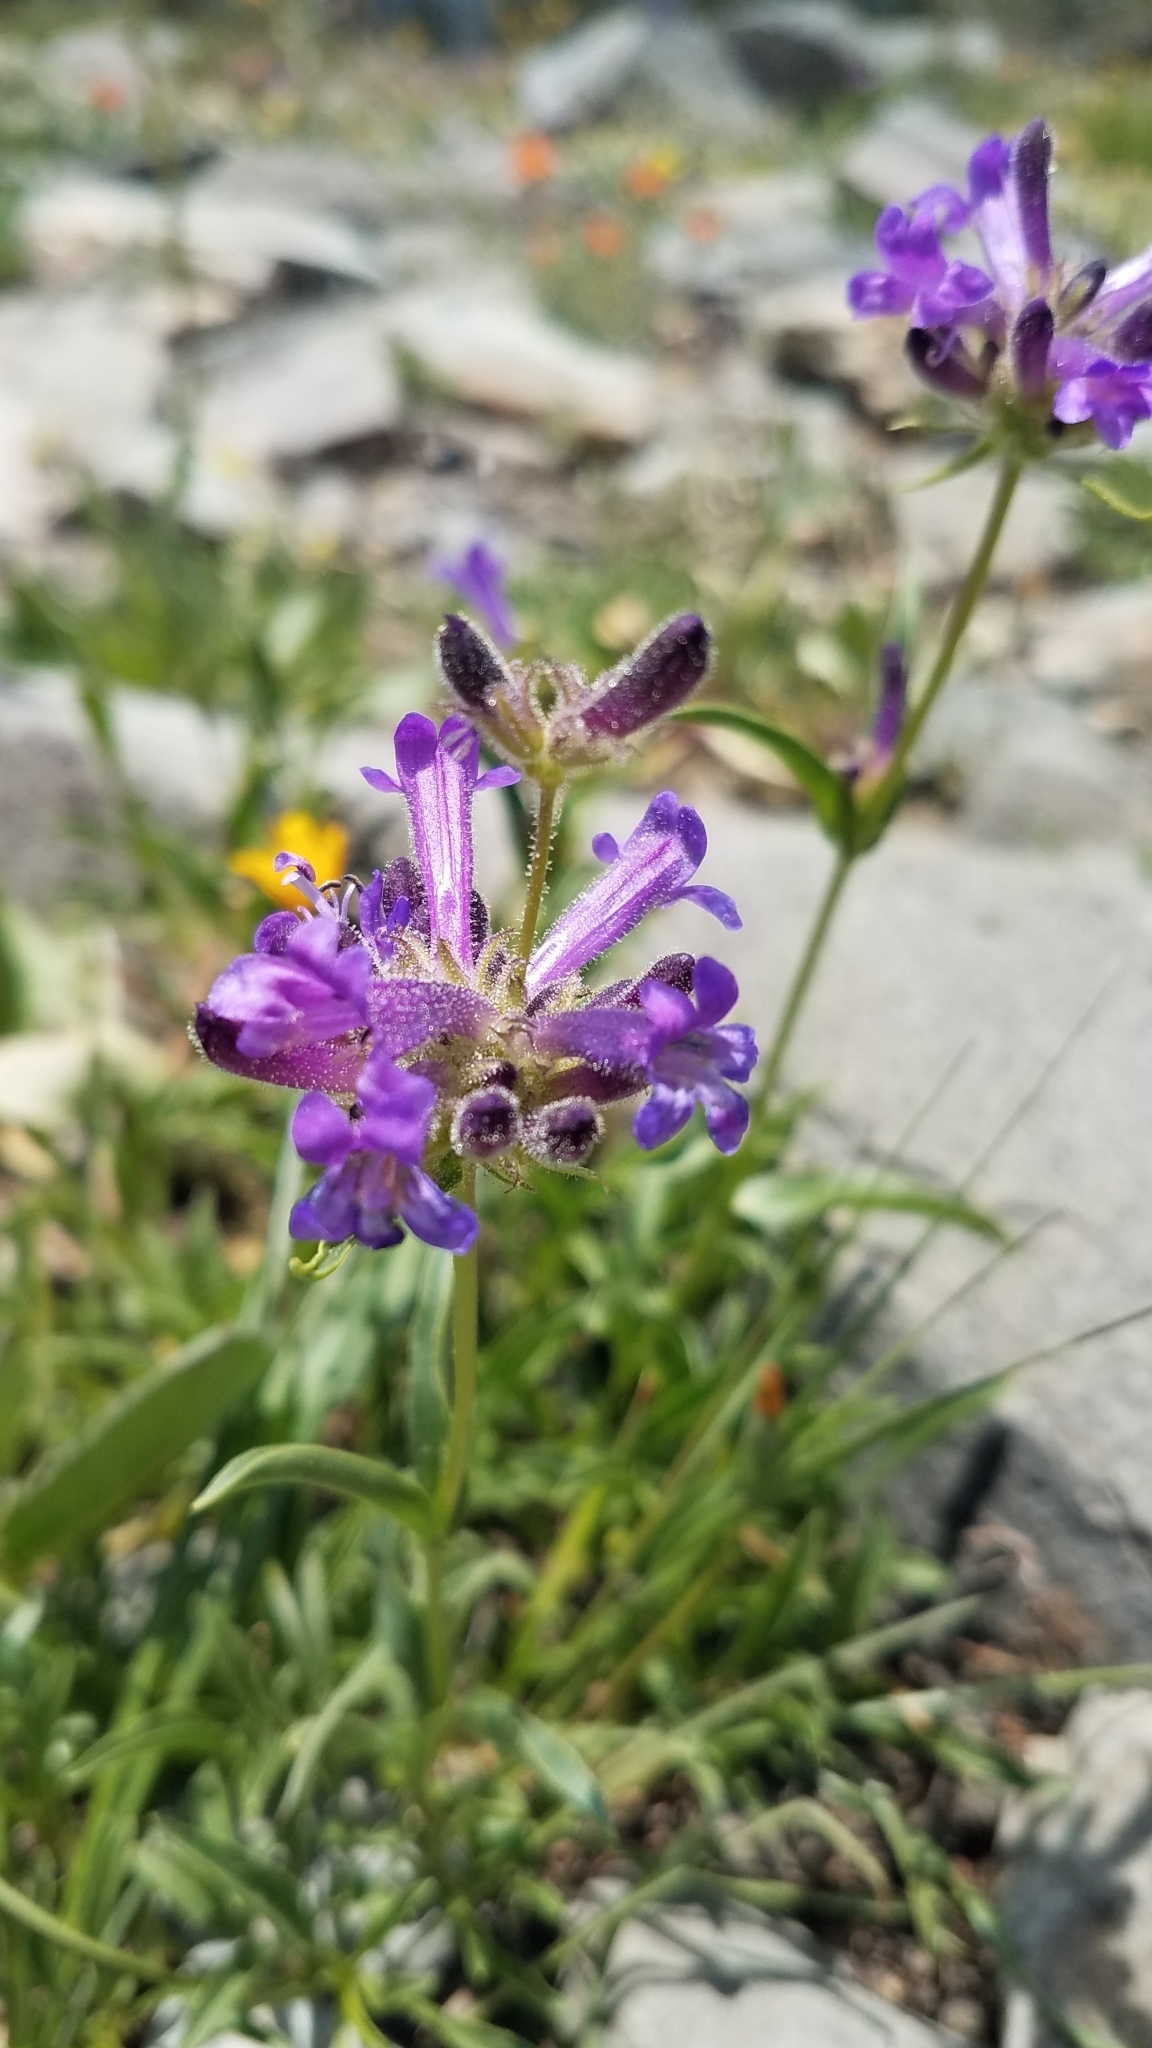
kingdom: Plantae
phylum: Tracheophyta
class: Magnoliopsida
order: Lamiales
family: Plantaginaceae
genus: Penstemon
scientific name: Penstemon heterodoxus
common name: Sierran penstemon
